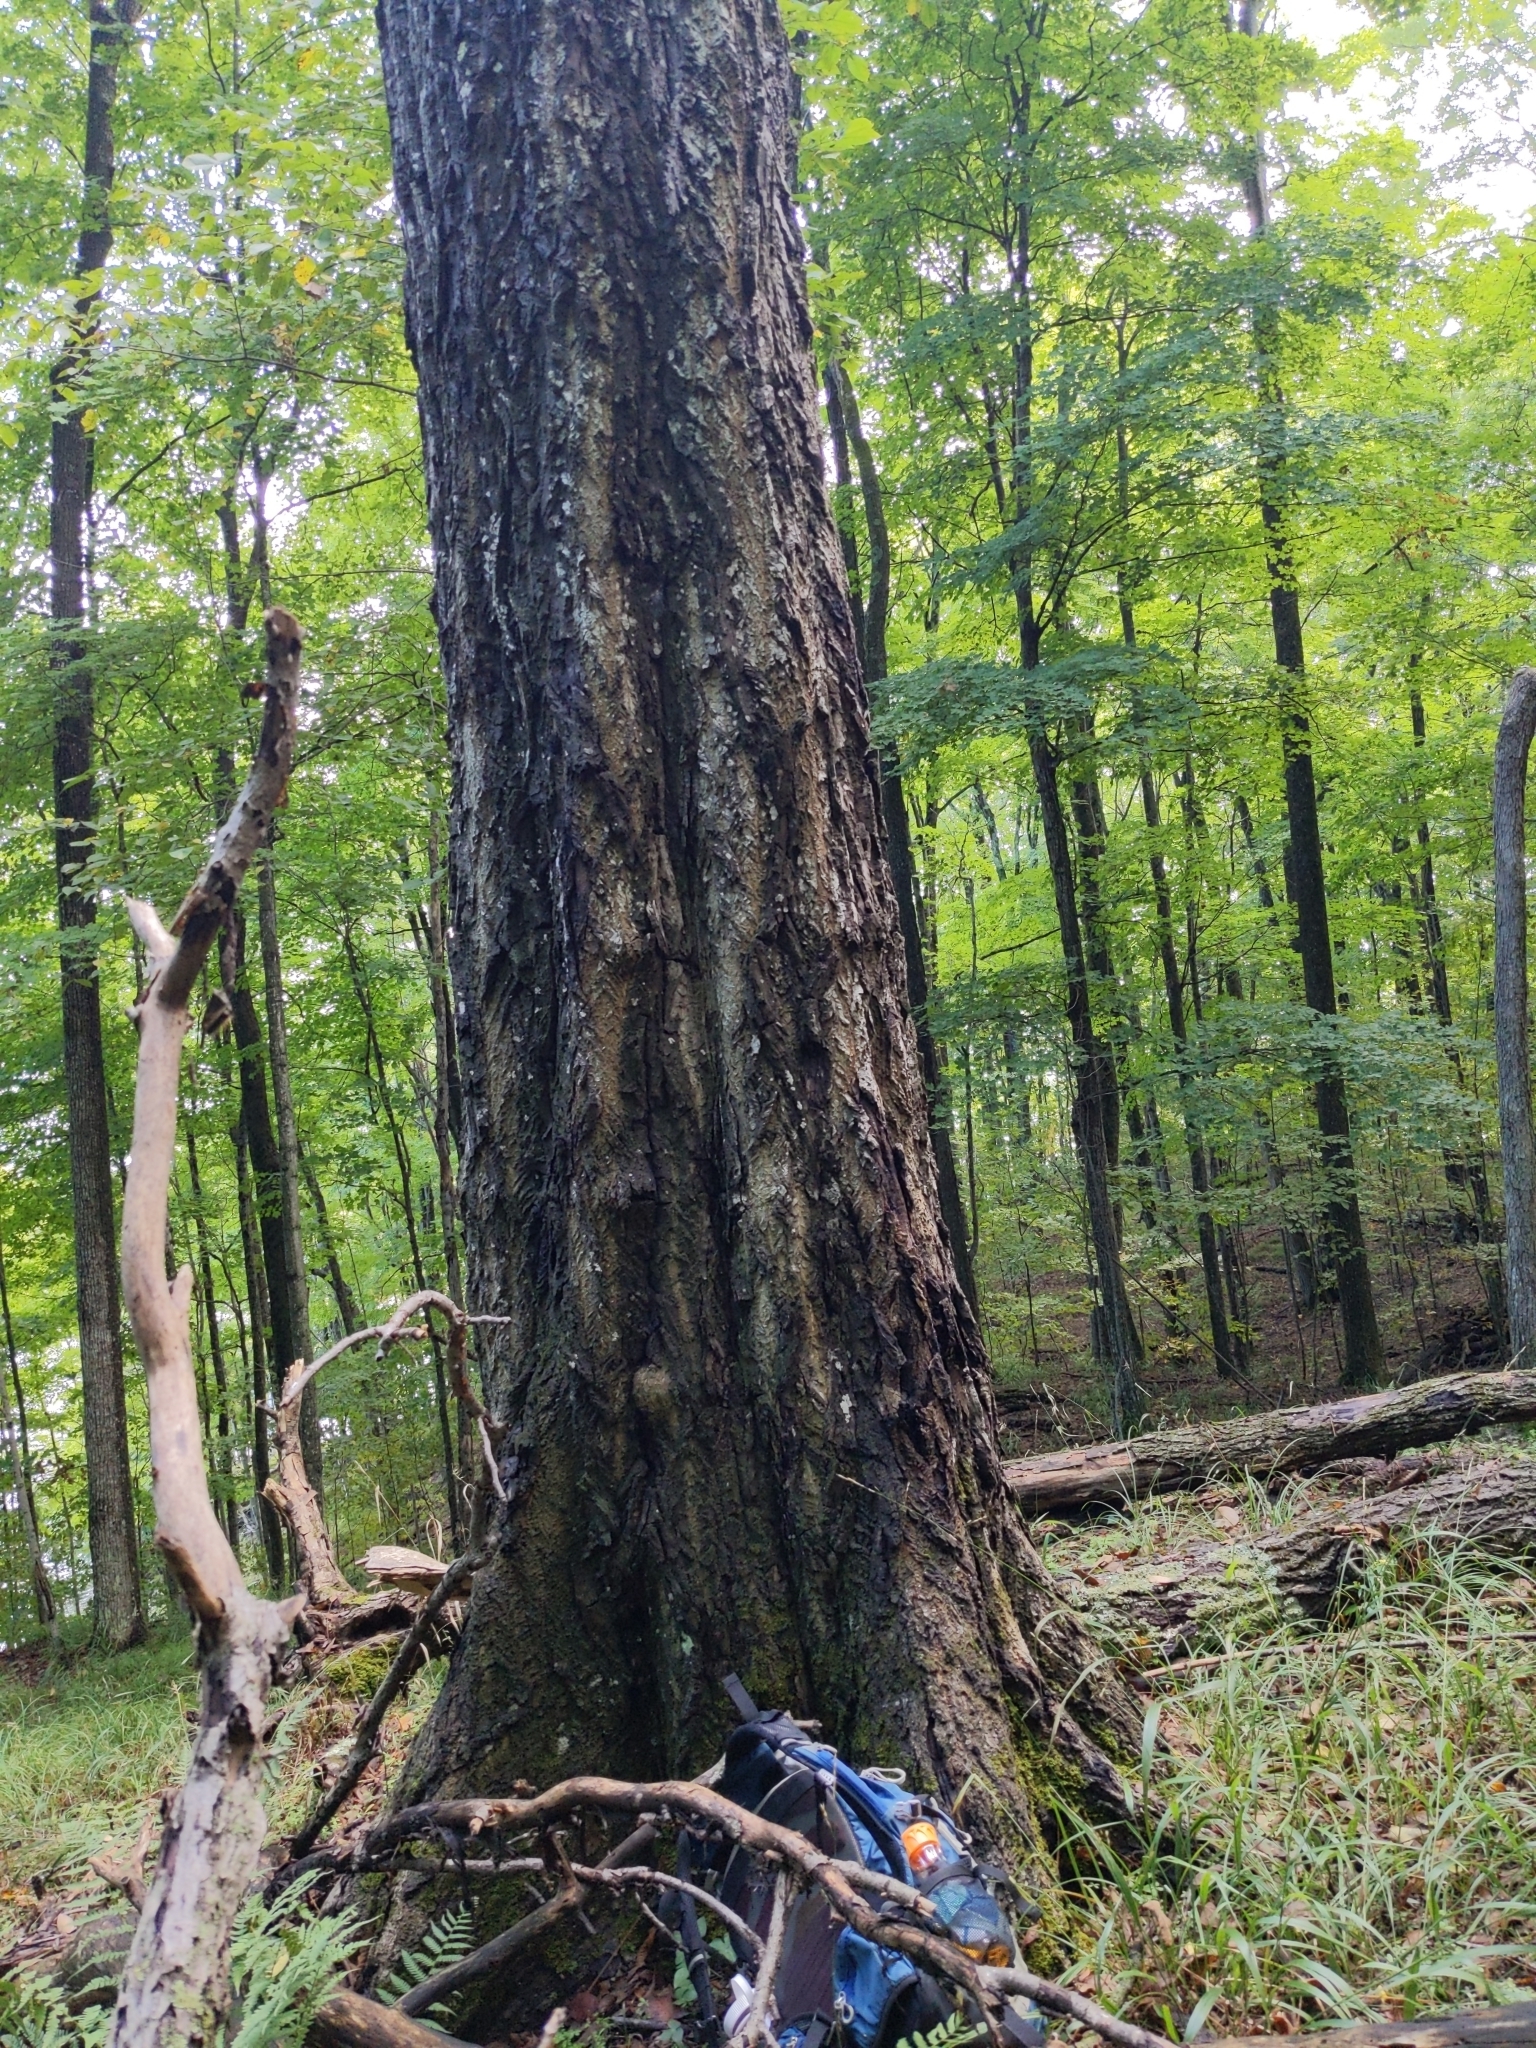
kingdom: Plantae
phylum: Tracheophyta
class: Magnoliopsida
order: Fagales
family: Juglandaceae
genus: Juglans
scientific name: Juglans cinerea
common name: Butternut
